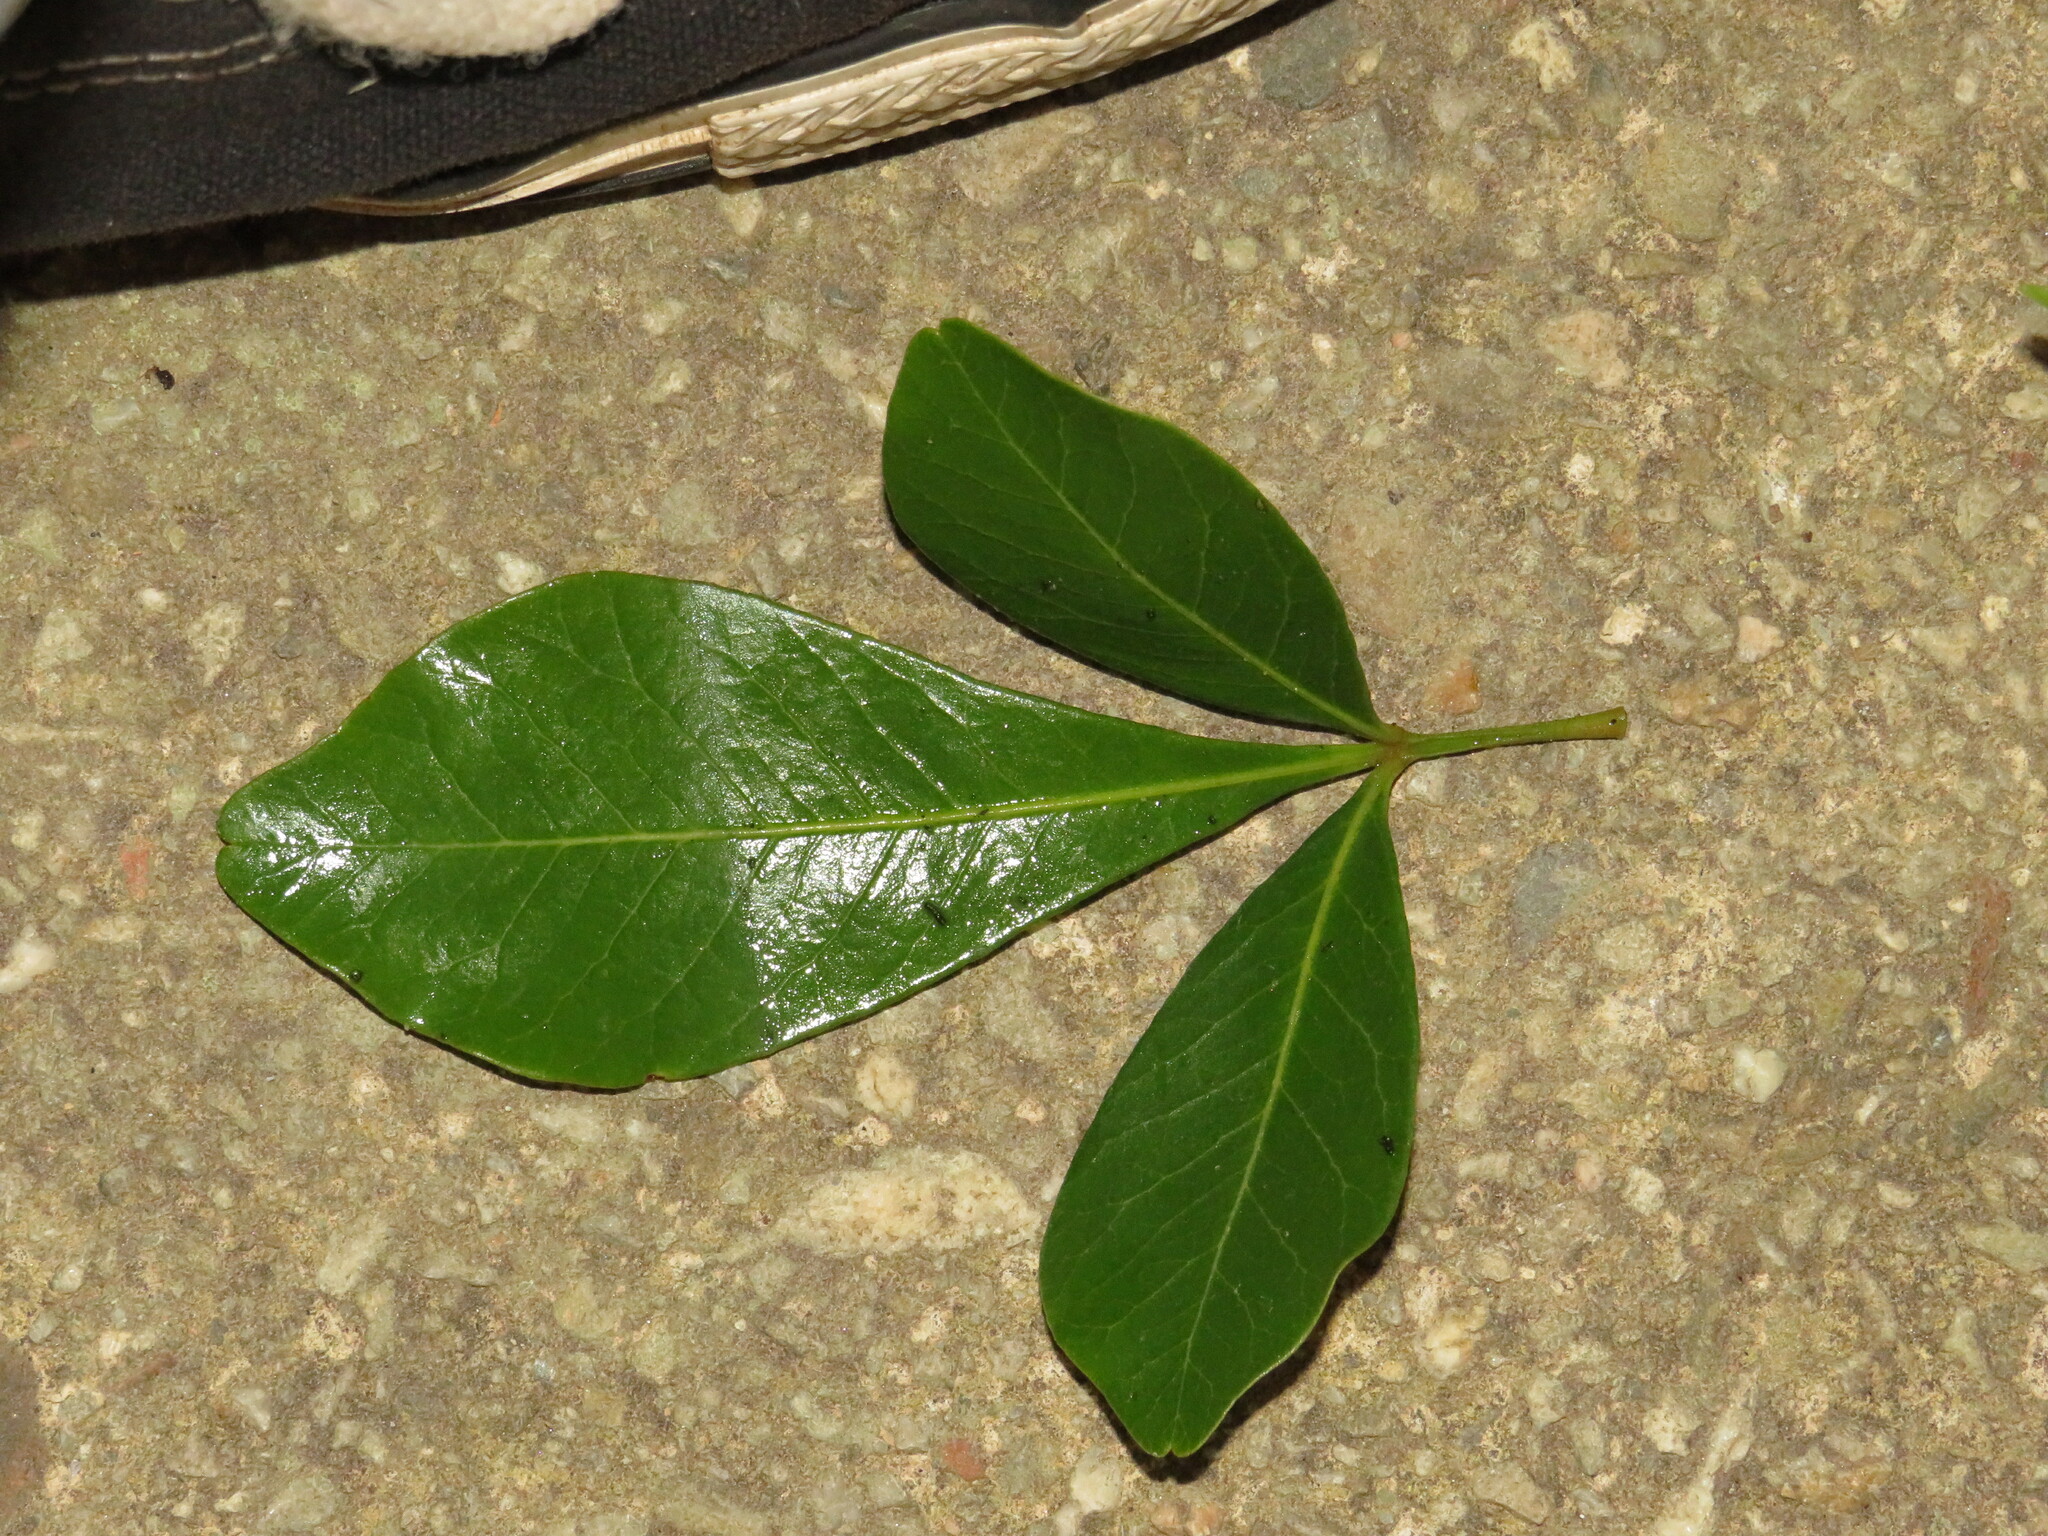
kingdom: Plantae
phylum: Tracheophyta
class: Magnoliopsida
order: Sapindales
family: Anacardiaceae
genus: Searsia
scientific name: Searsia lucida
